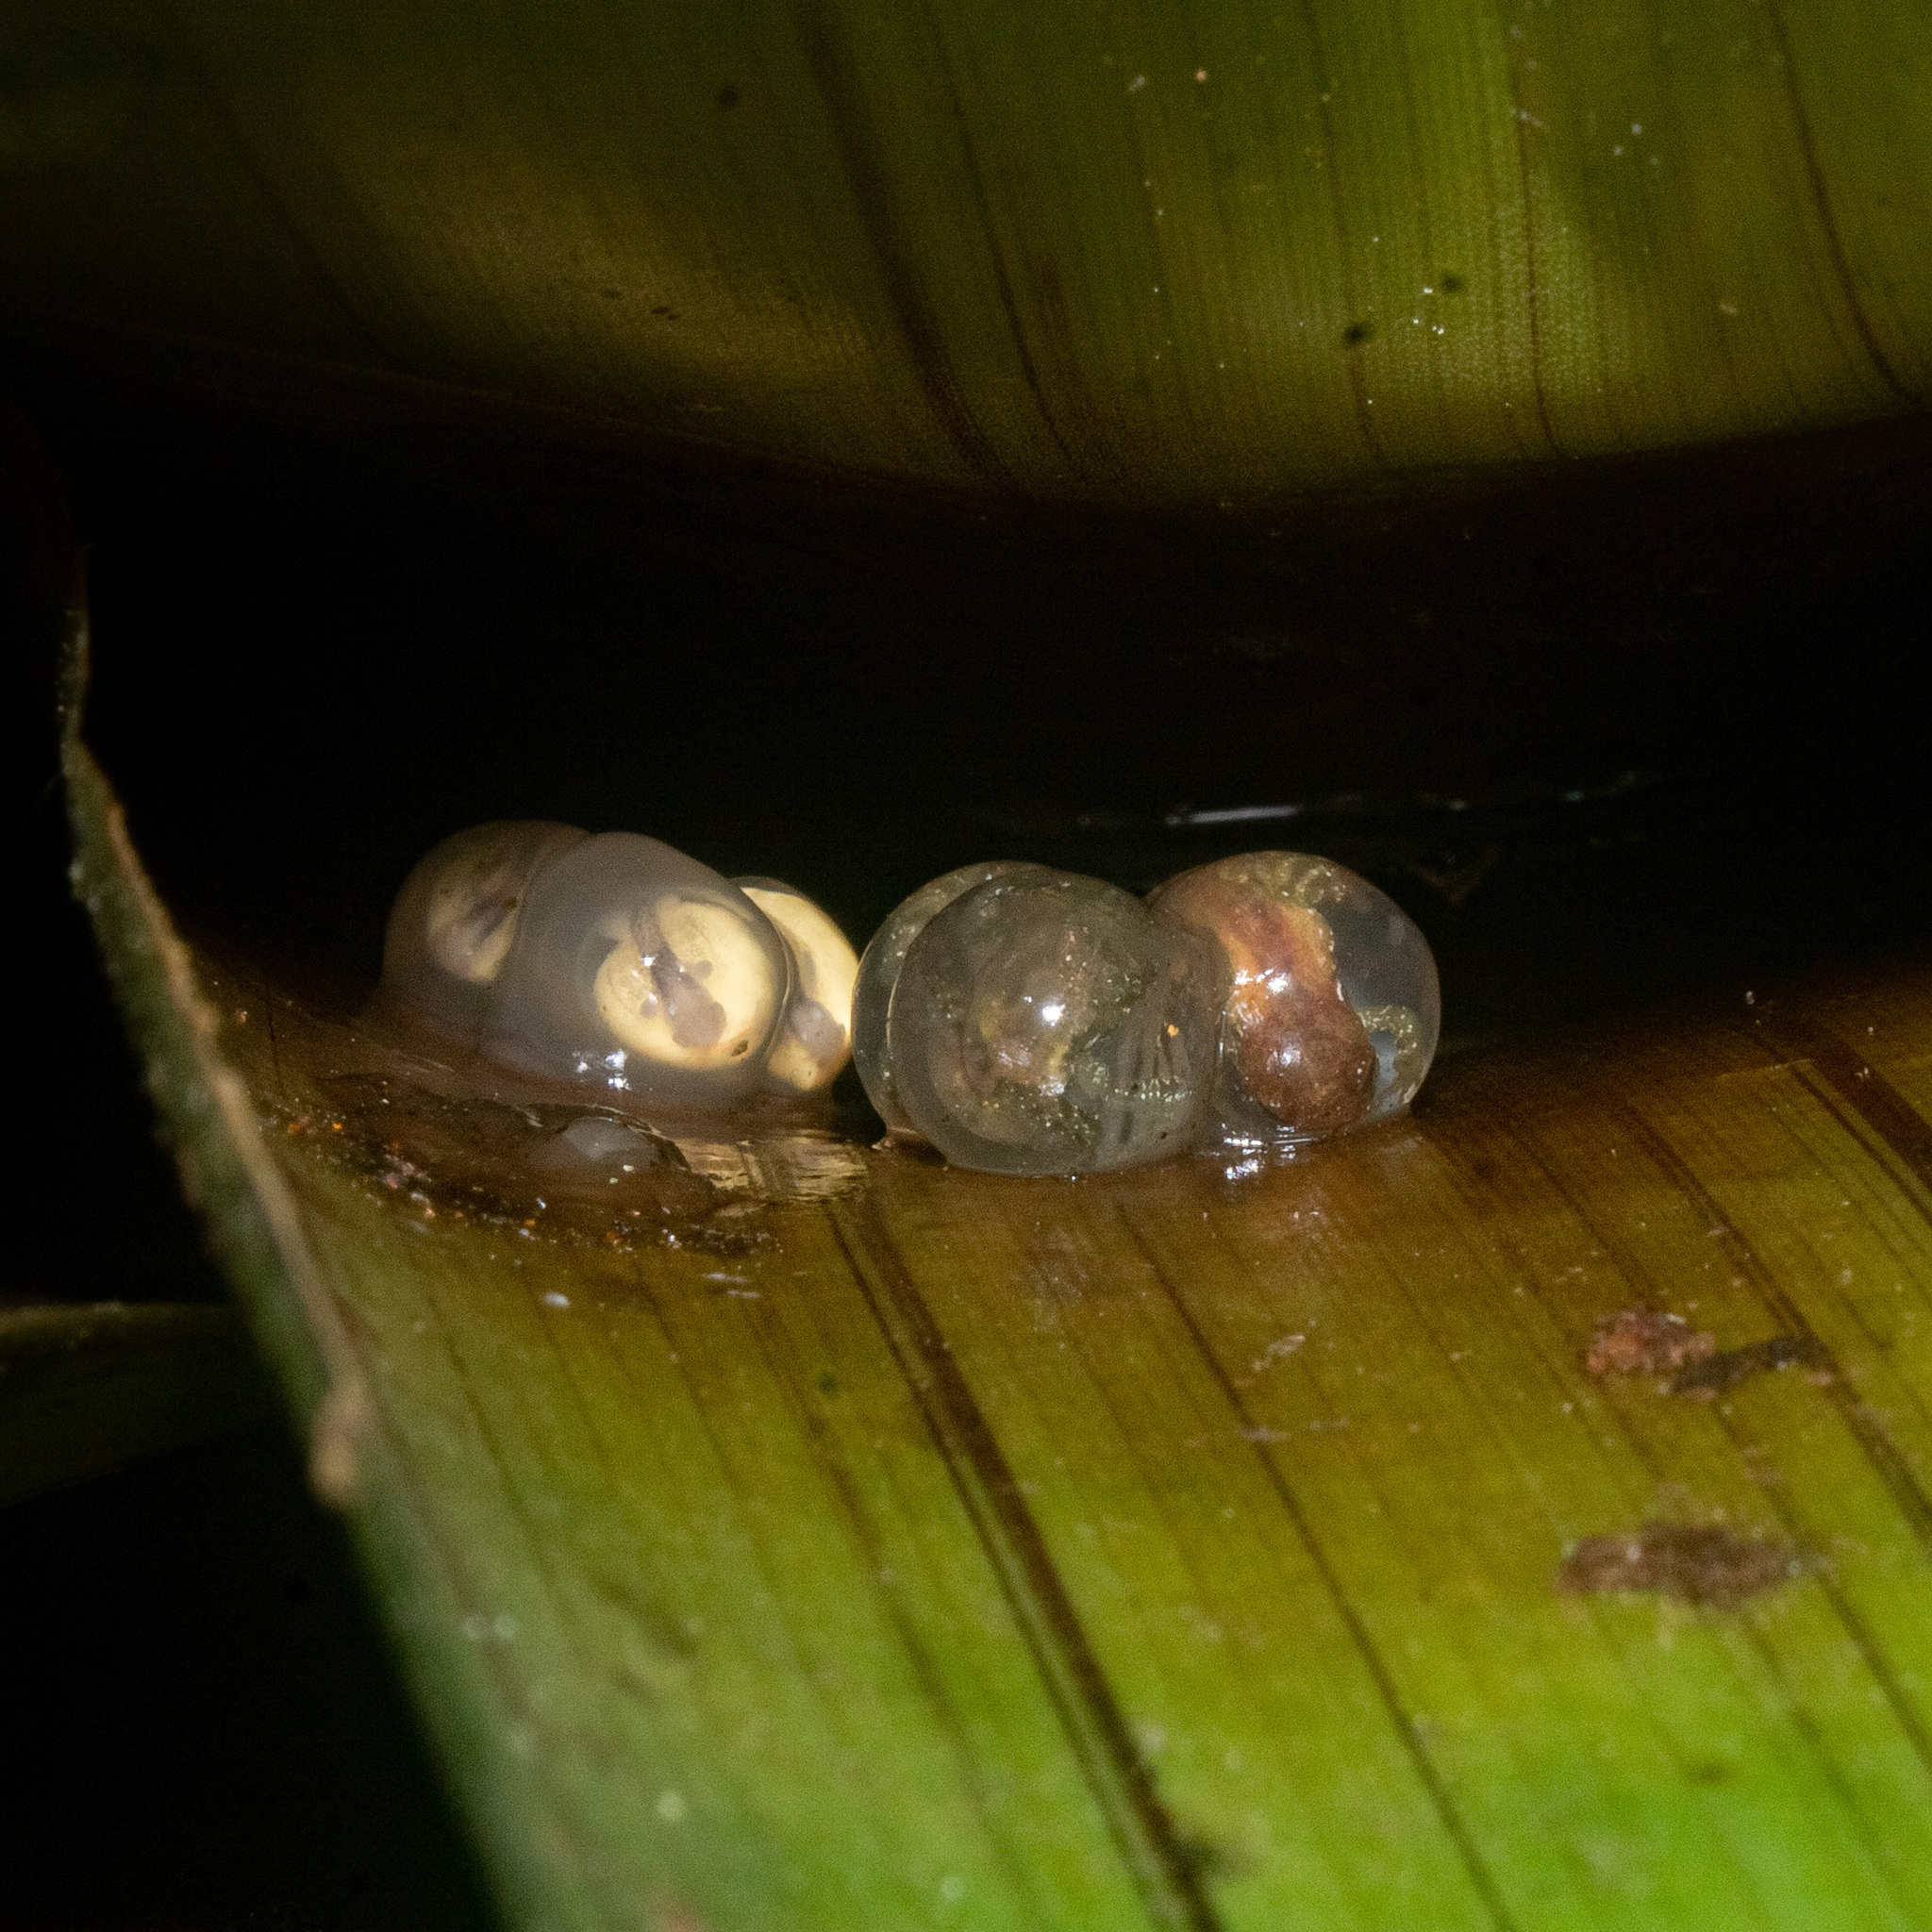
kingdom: Animalia
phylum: Chordata
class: Amphibia
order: Anura
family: Craugastoridae
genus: Tachiramantis
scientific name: Tachiramantis
